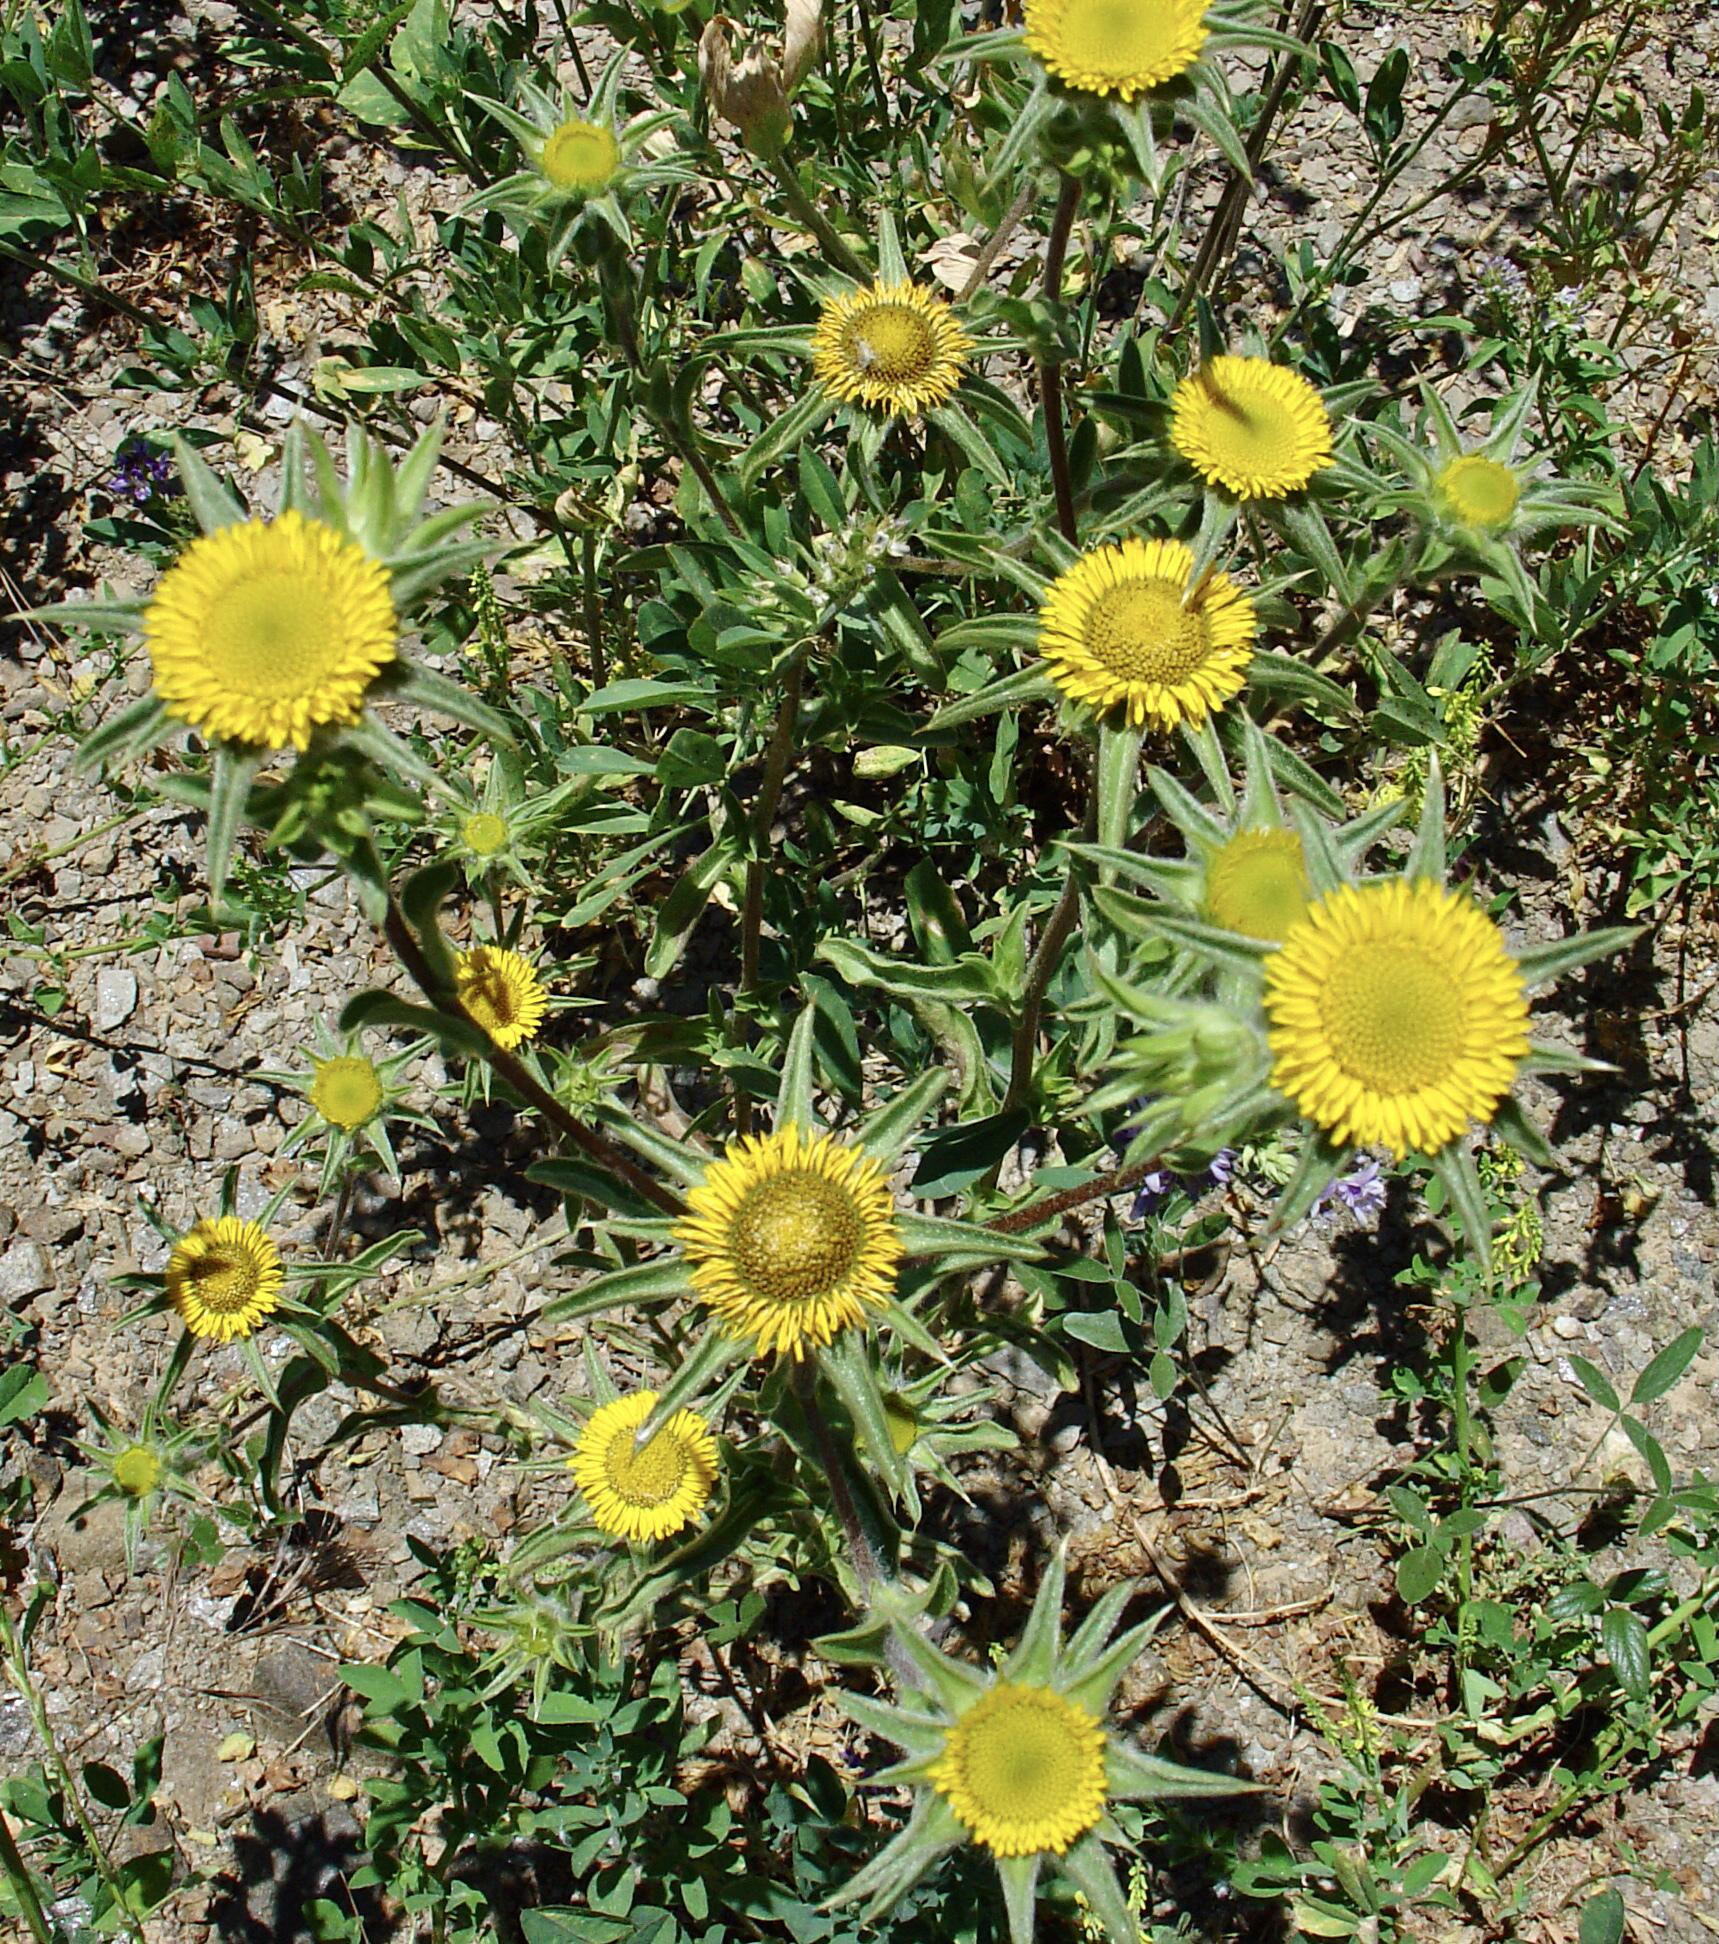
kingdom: Plantae
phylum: Tracheophyta
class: Magnoliopsida
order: Asterales
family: Asteraceae
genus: Pallenis
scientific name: Pallenis spinosa
